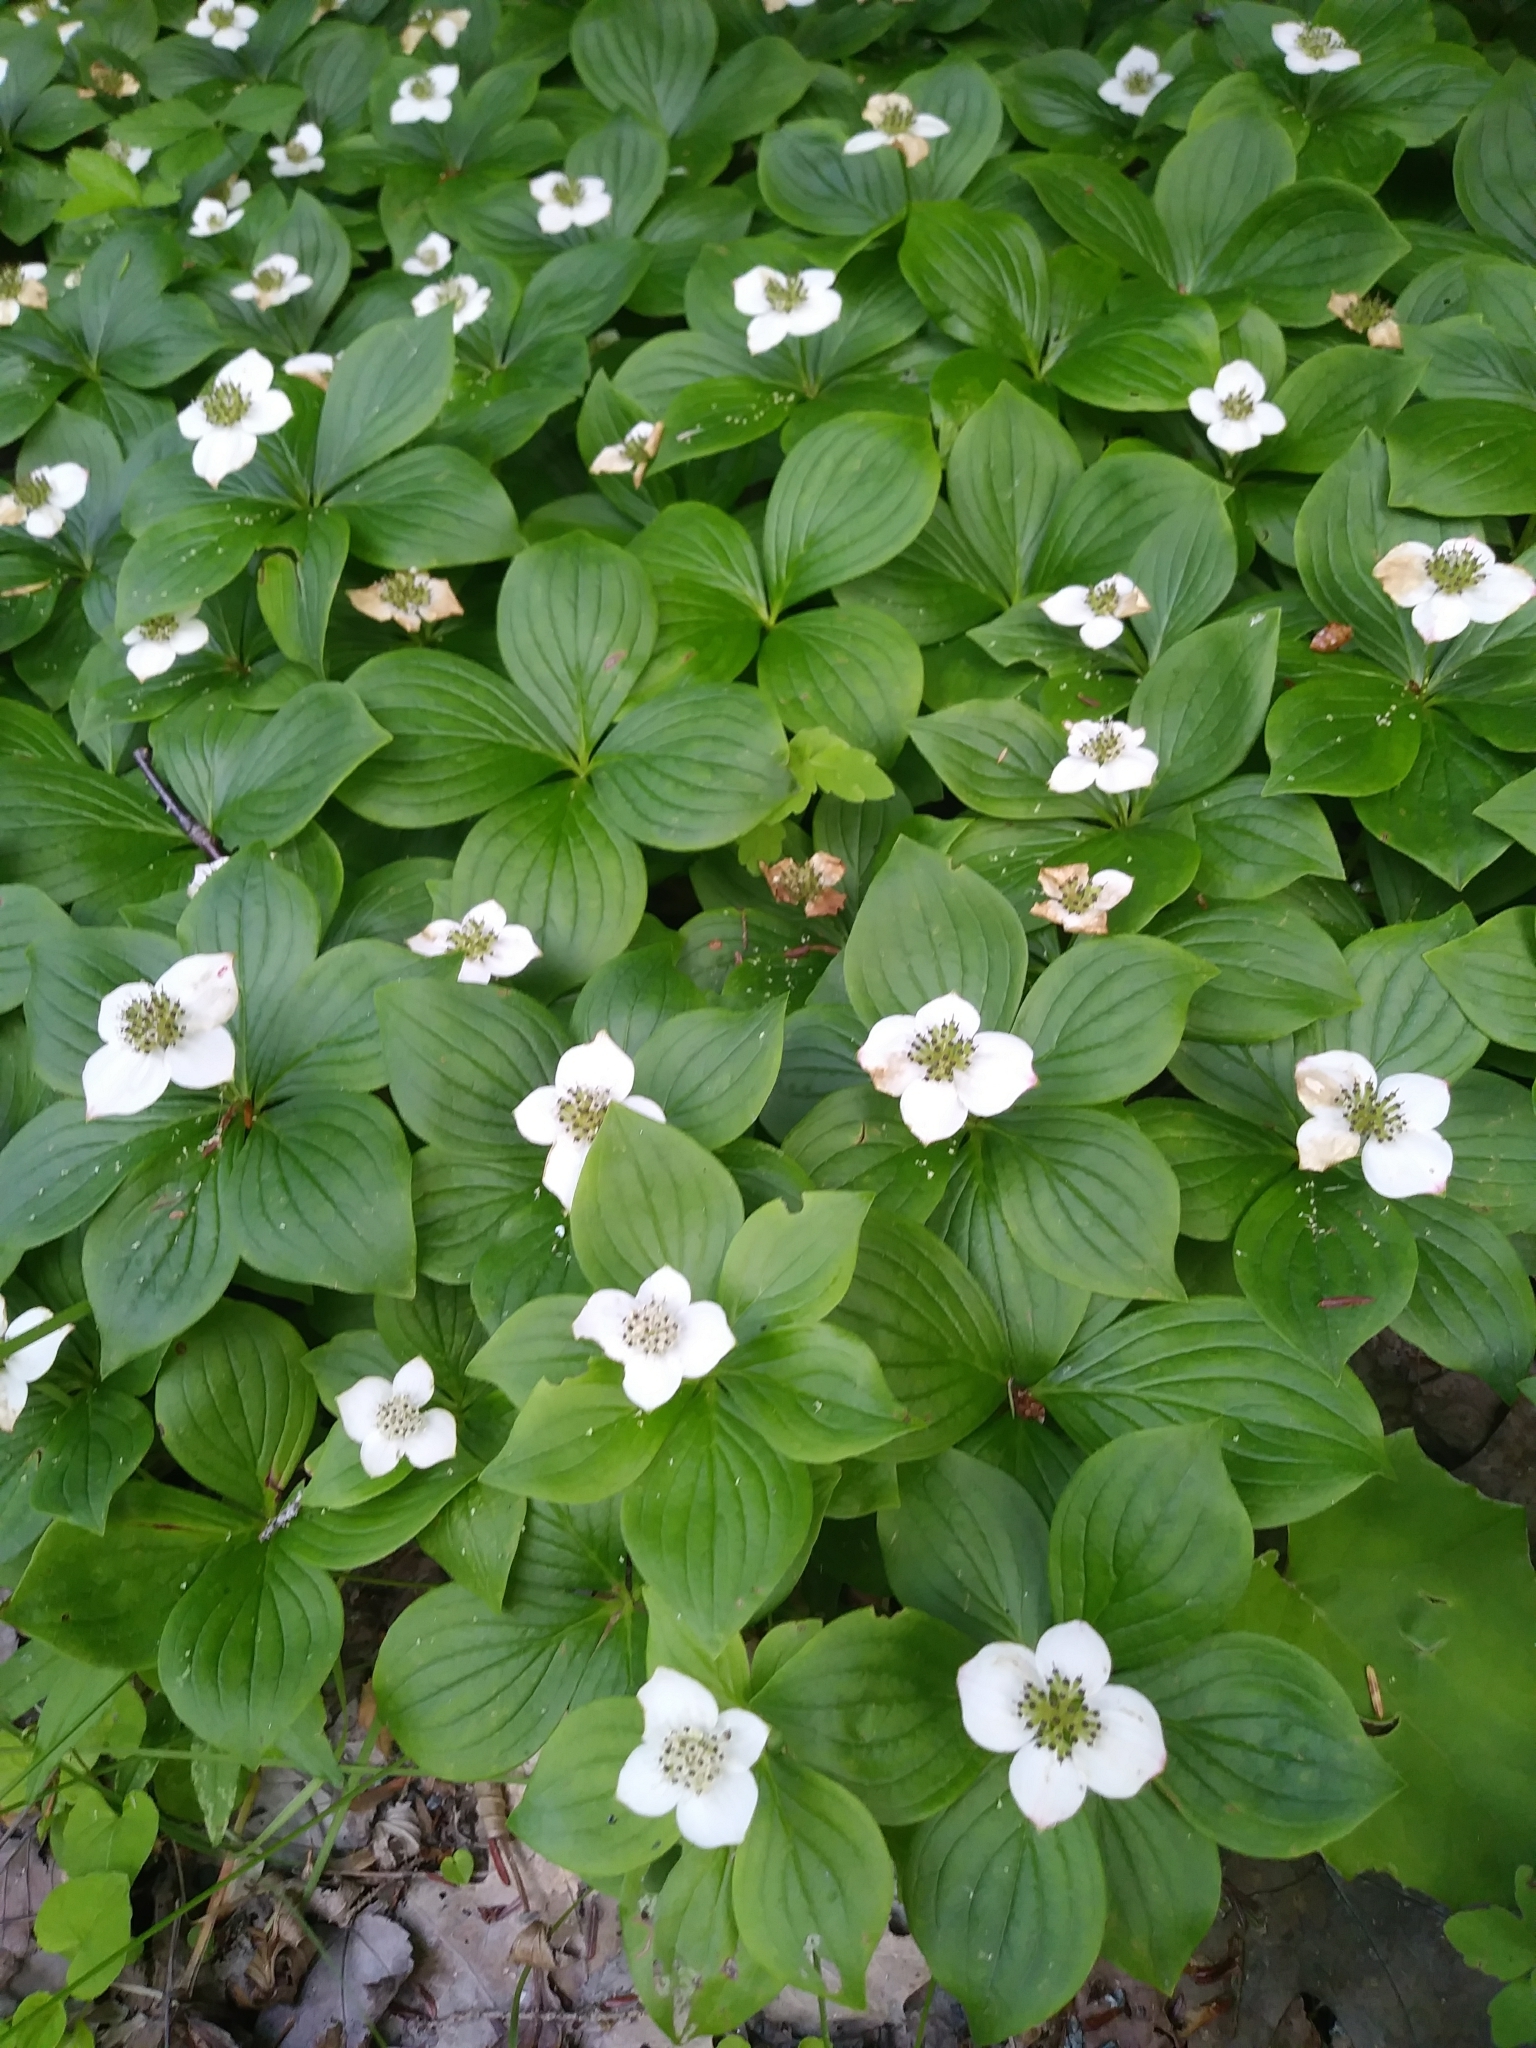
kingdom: Plantae
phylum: Tracheophyta
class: Magnoliopsida
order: Cornales
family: Cornaceae
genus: Cornus
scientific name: Cornus canadensis
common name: Creeping dogwood
